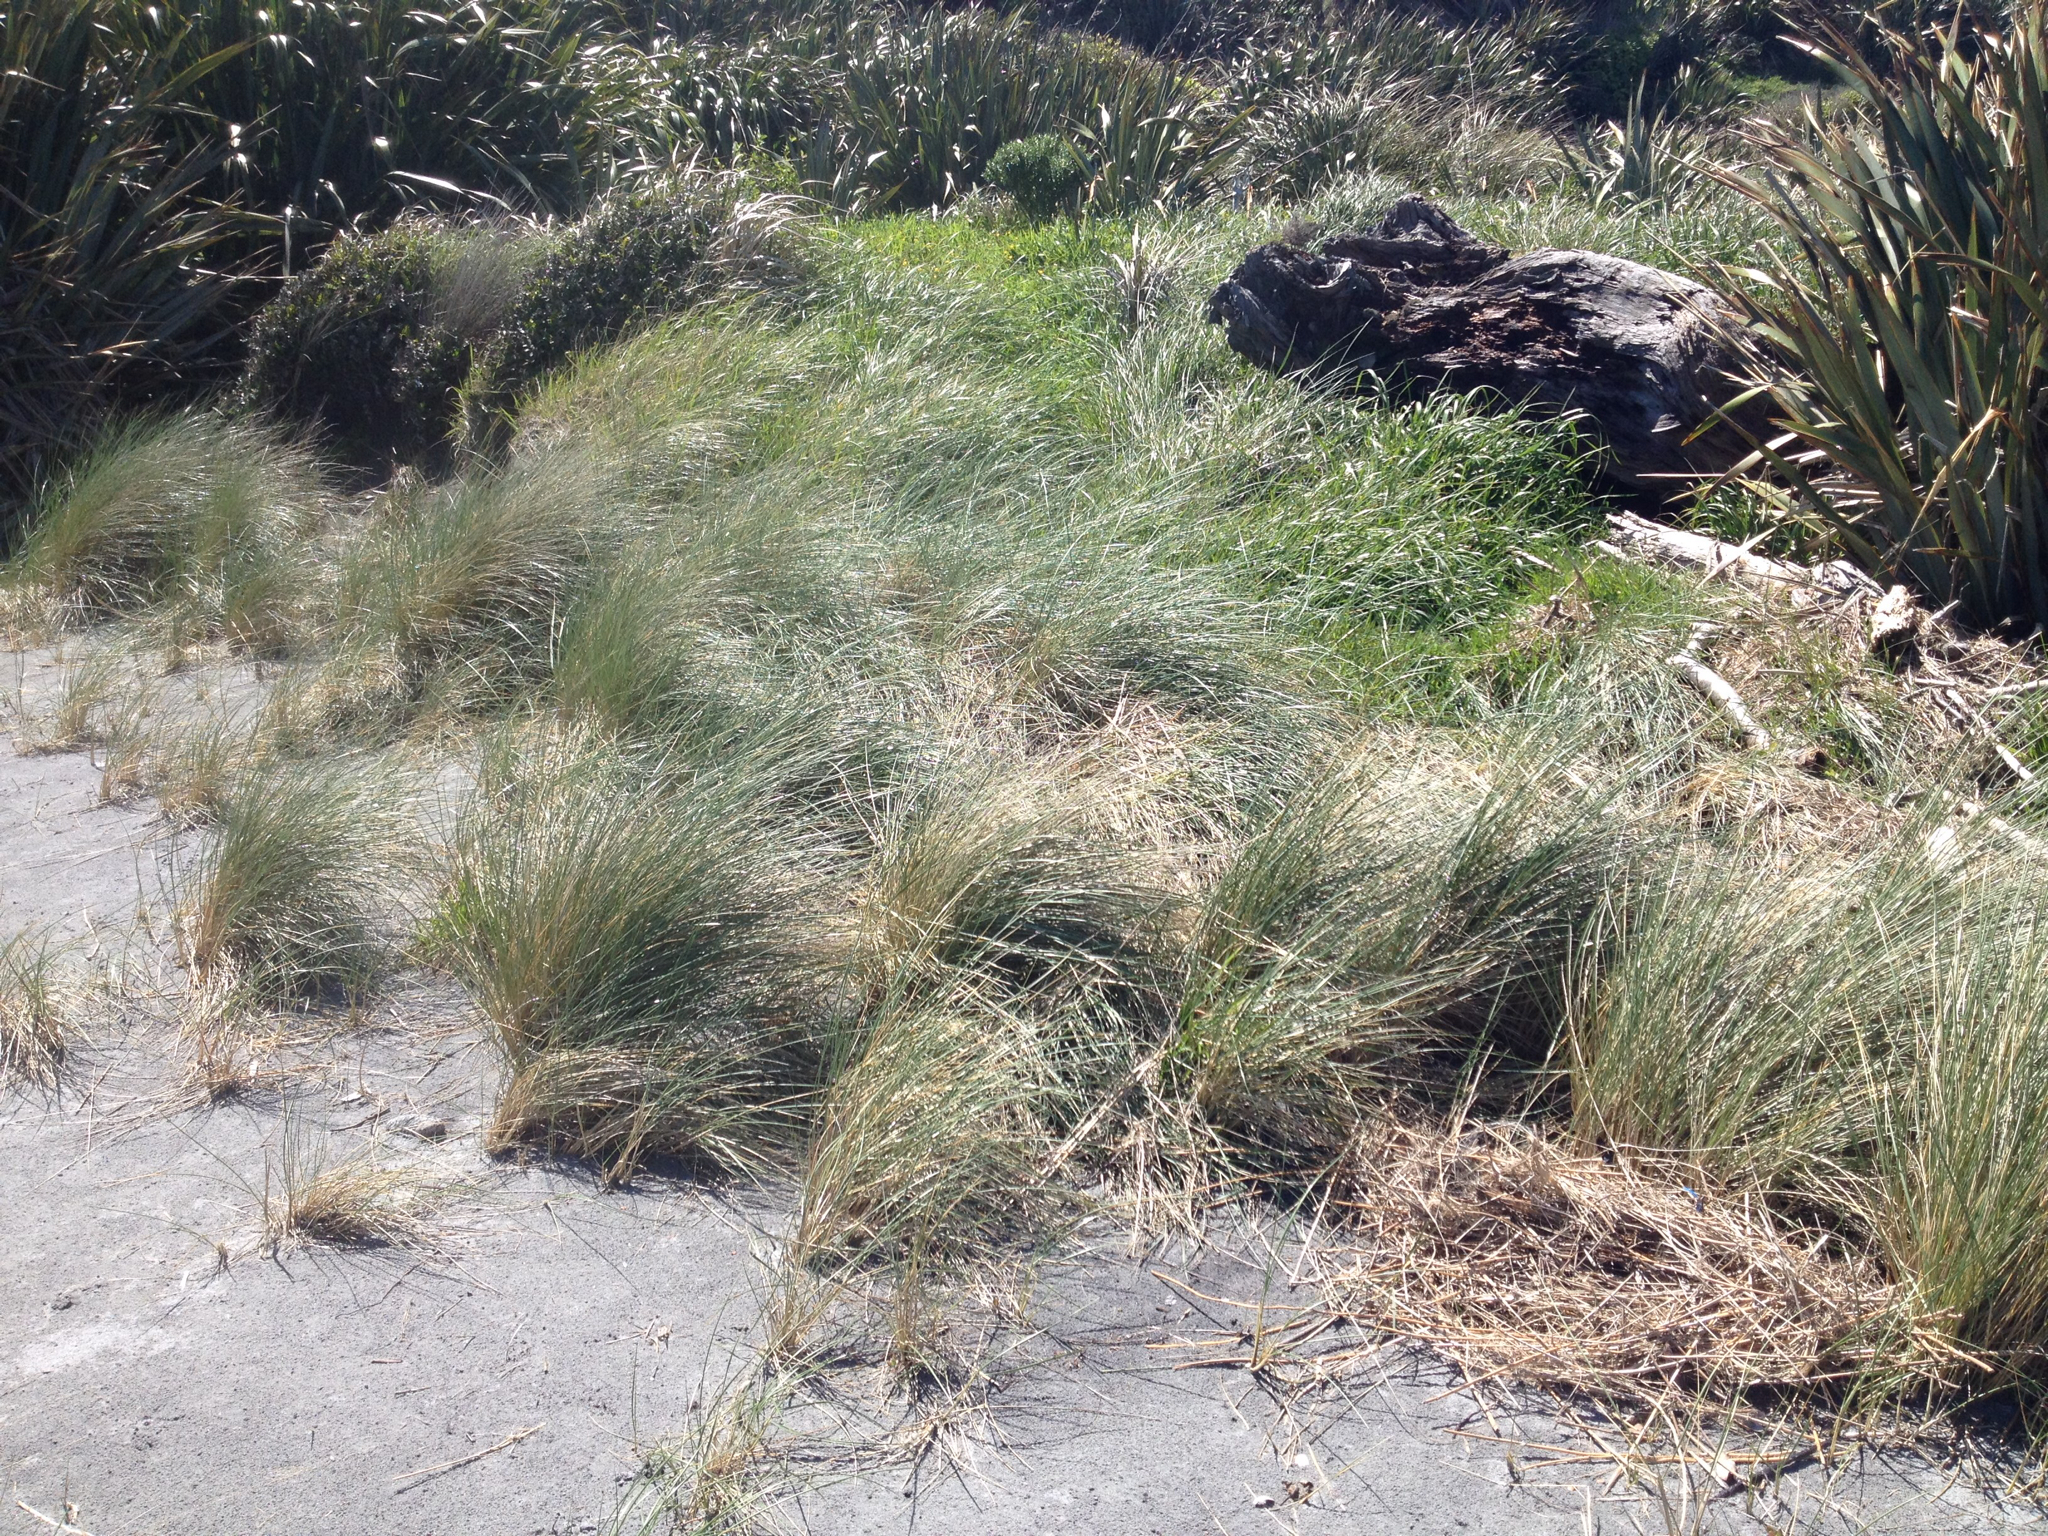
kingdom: Plantae
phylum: Tracheophyta
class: Liliopsida
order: Poales
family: Poaceae
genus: Calamagrostis
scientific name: Calamagrostis arenaria
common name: European beachgrass
